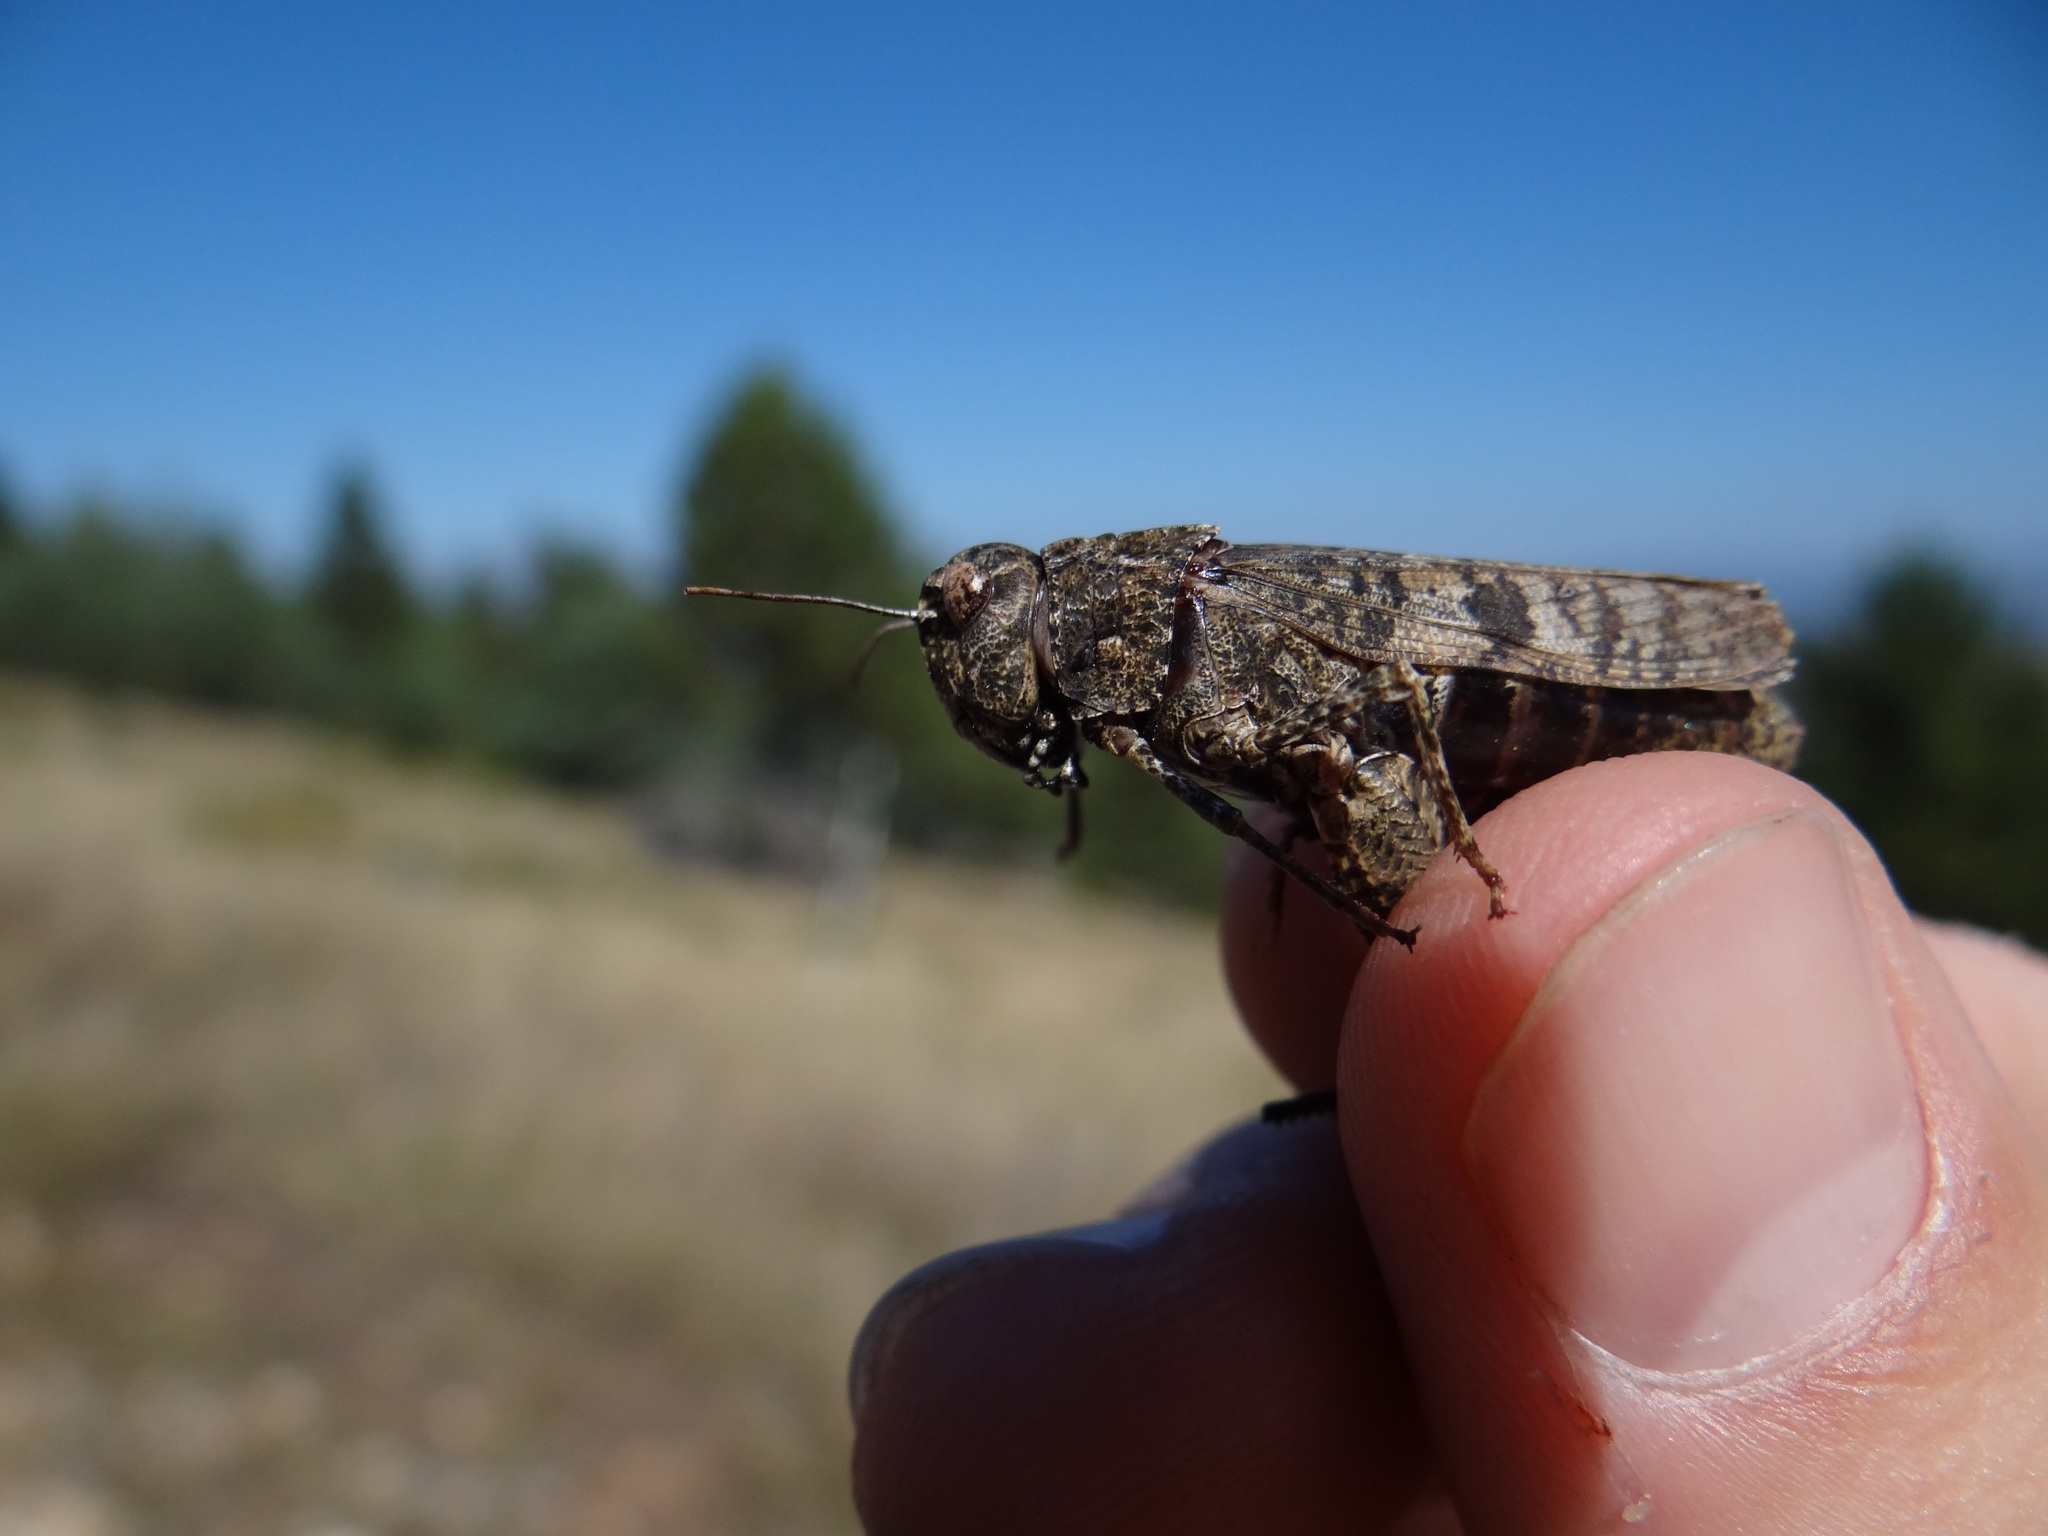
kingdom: Animalia
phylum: Arthropoda
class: Insecta
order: Orthoptera
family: Acrididae
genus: Celes
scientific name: Celes variabilis
